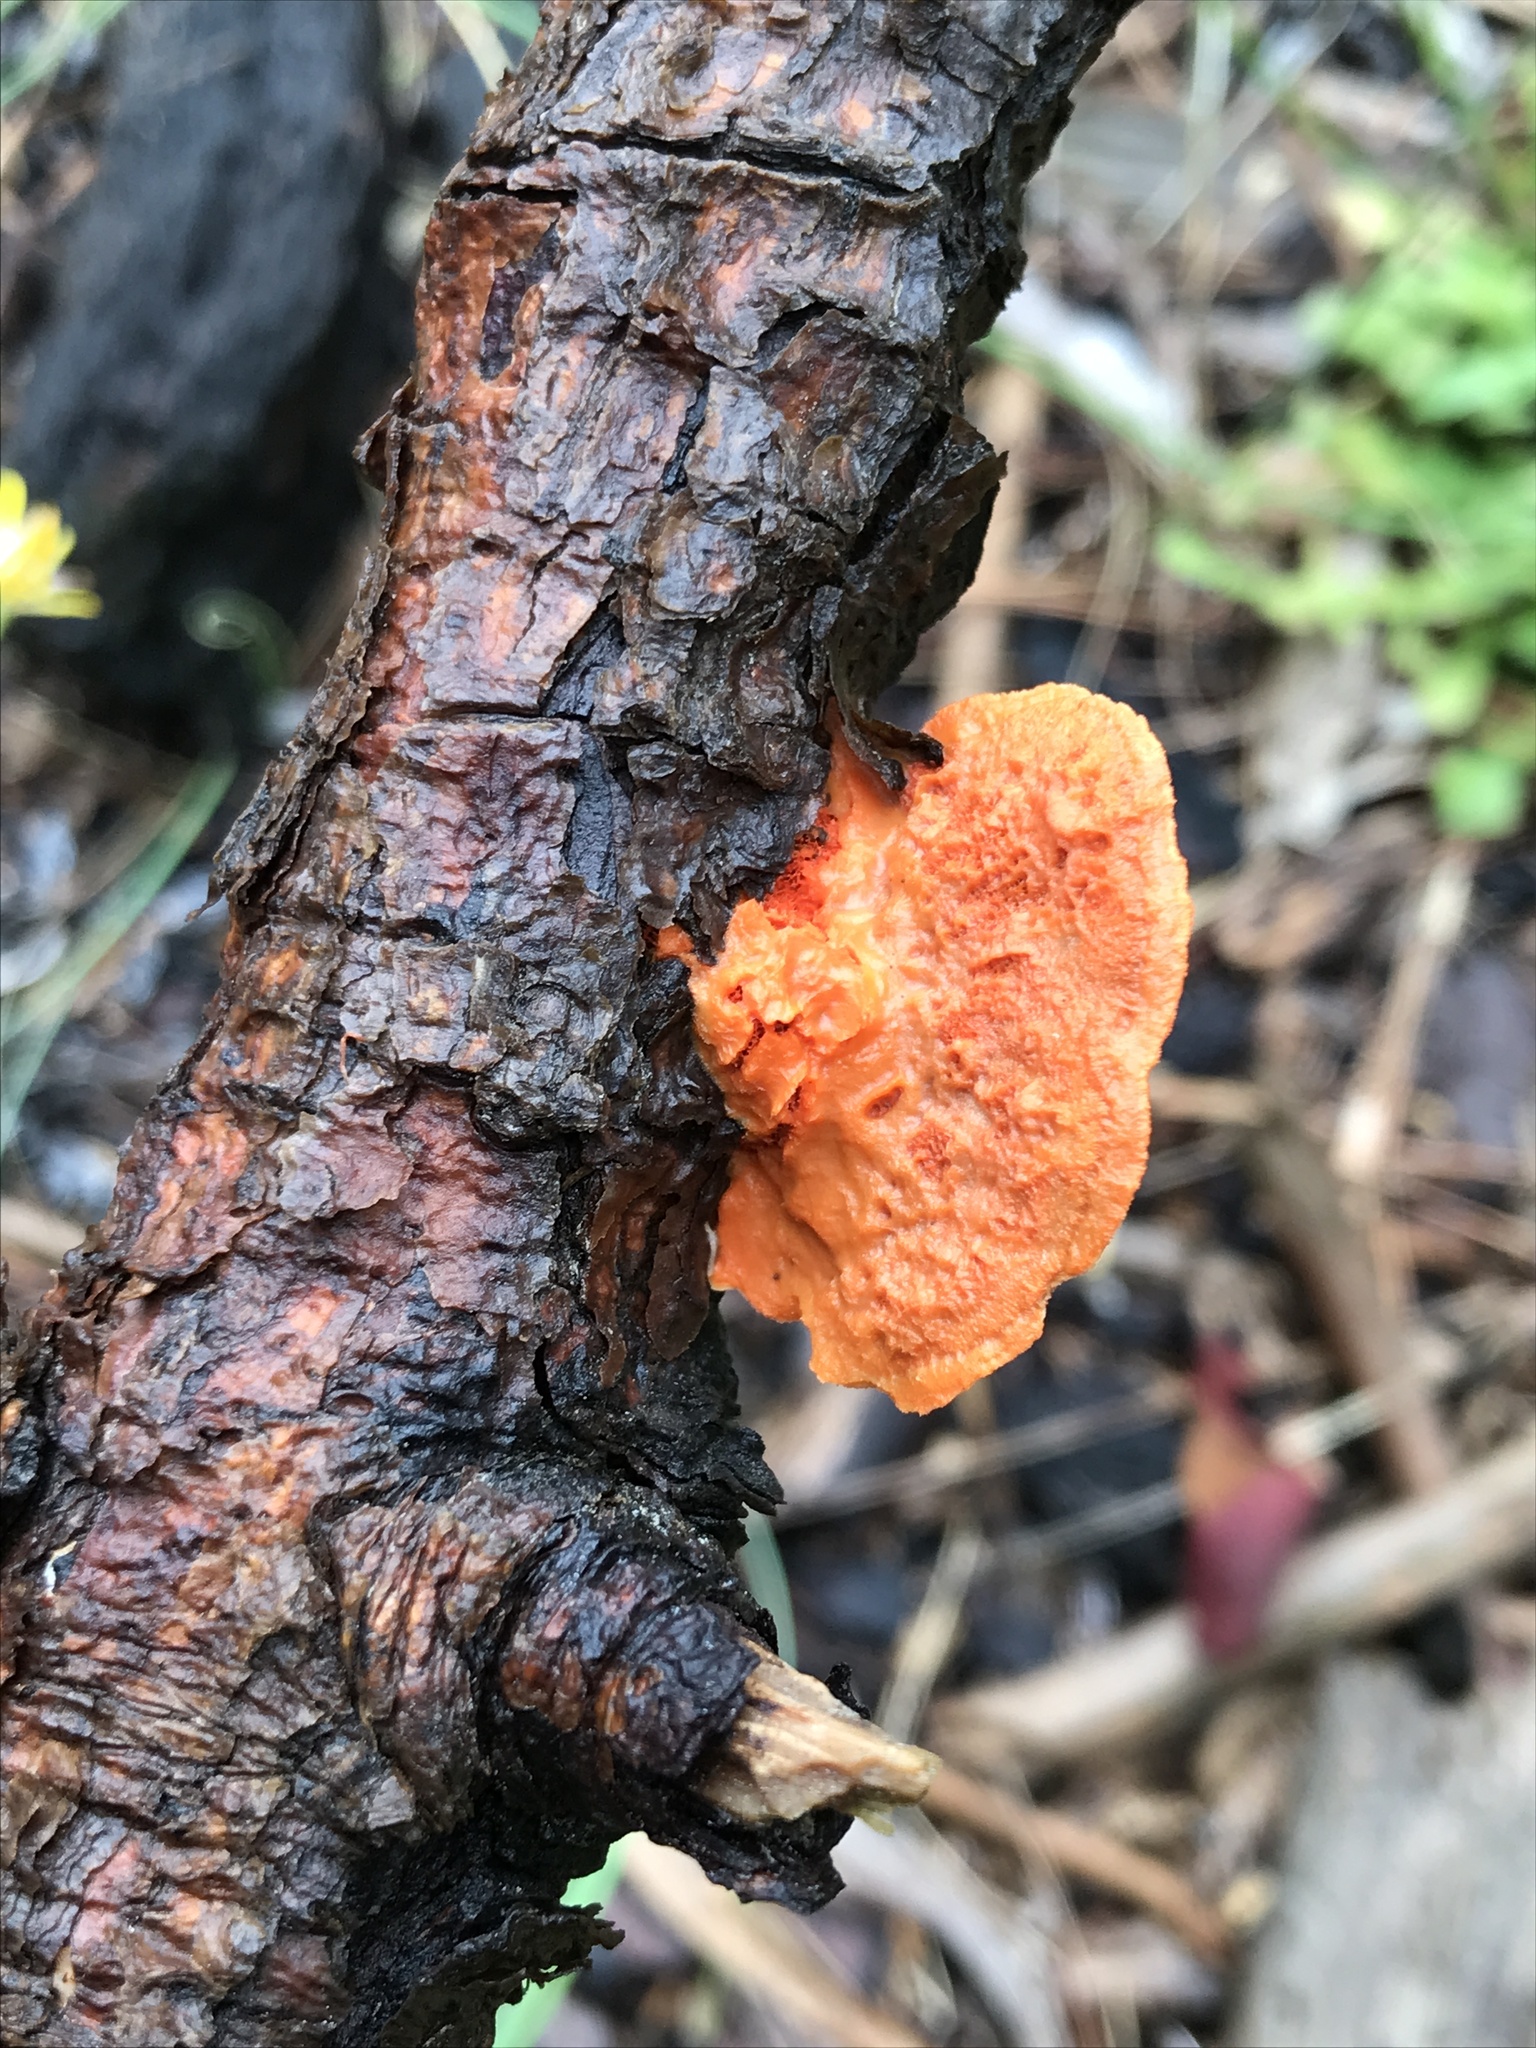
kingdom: Fungi
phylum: Basidiomycota
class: Agaricomycetes
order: Polyporales
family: Polyporaceae
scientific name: Polyporaceae
